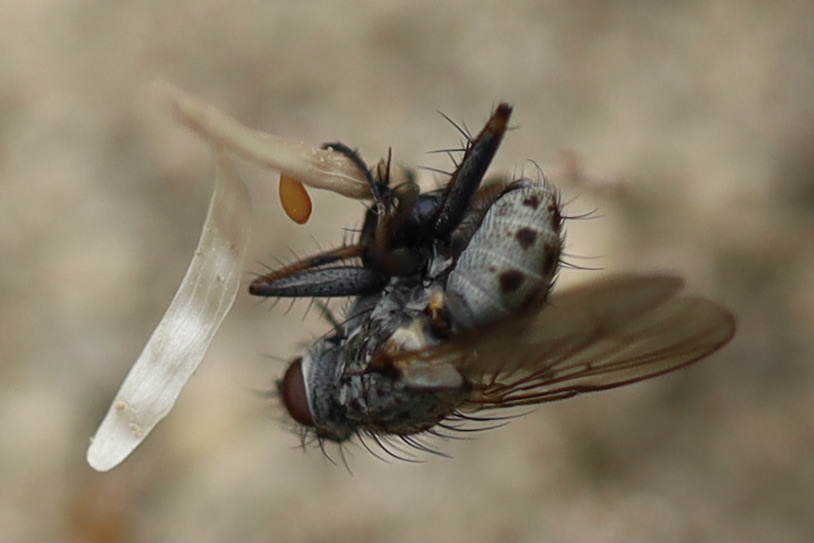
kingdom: Animalia
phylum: Arthropoda
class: Insecta
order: Diptera
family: Muscidae
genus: Coenosia
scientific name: Coenosia tigrina
